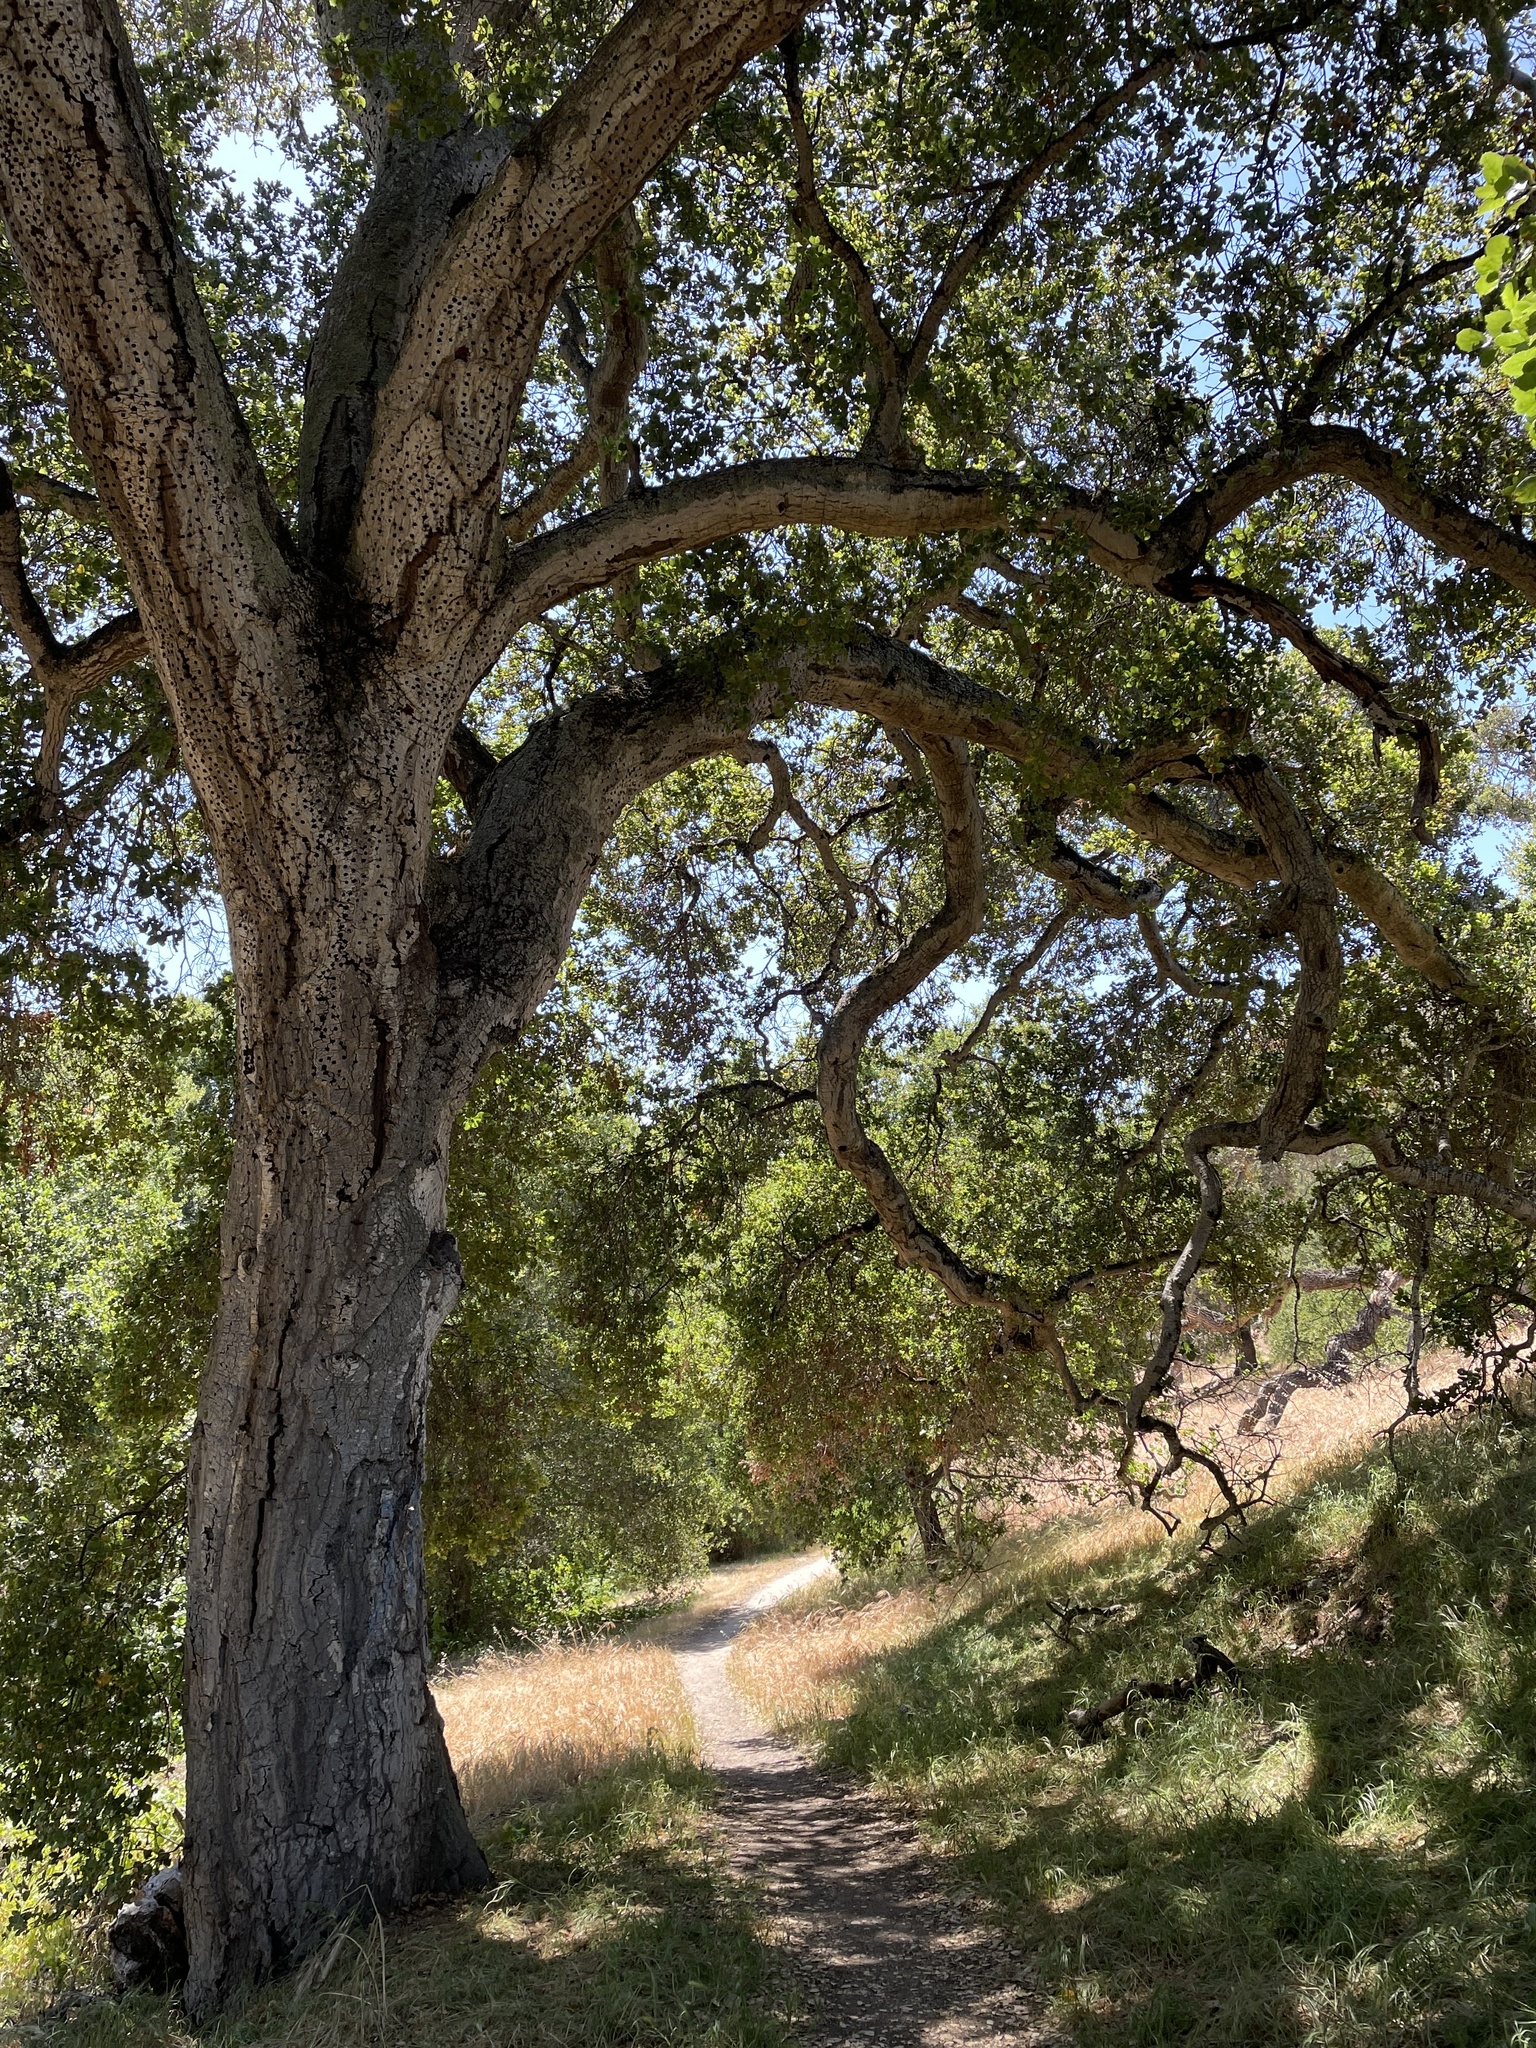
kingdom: Plantae
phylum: Tracheophyta
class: Magnoliopsida
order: Fagales
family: Fagaceae
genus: Quercus
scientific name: Quercus agrifolia
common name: California live oak
